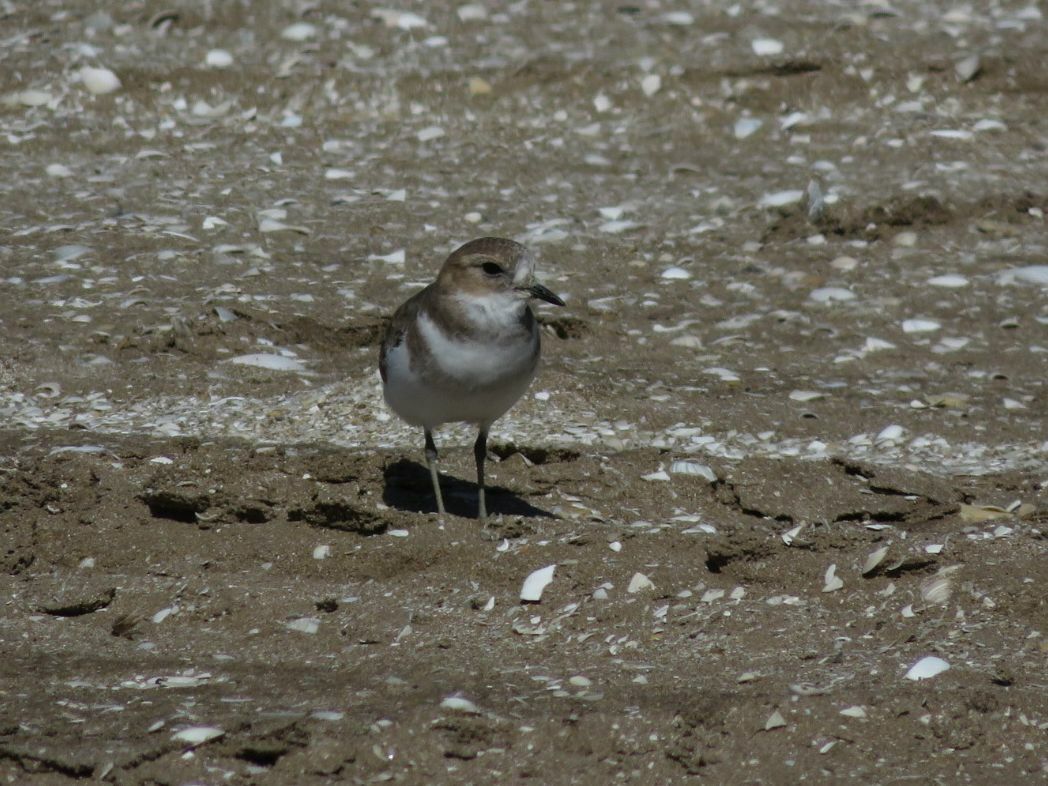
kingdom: Animalia
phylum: Chordata
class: Aves
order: Charadriiformes
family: Charadriidae
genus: Anarhynchus
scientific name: Anarhynchus
